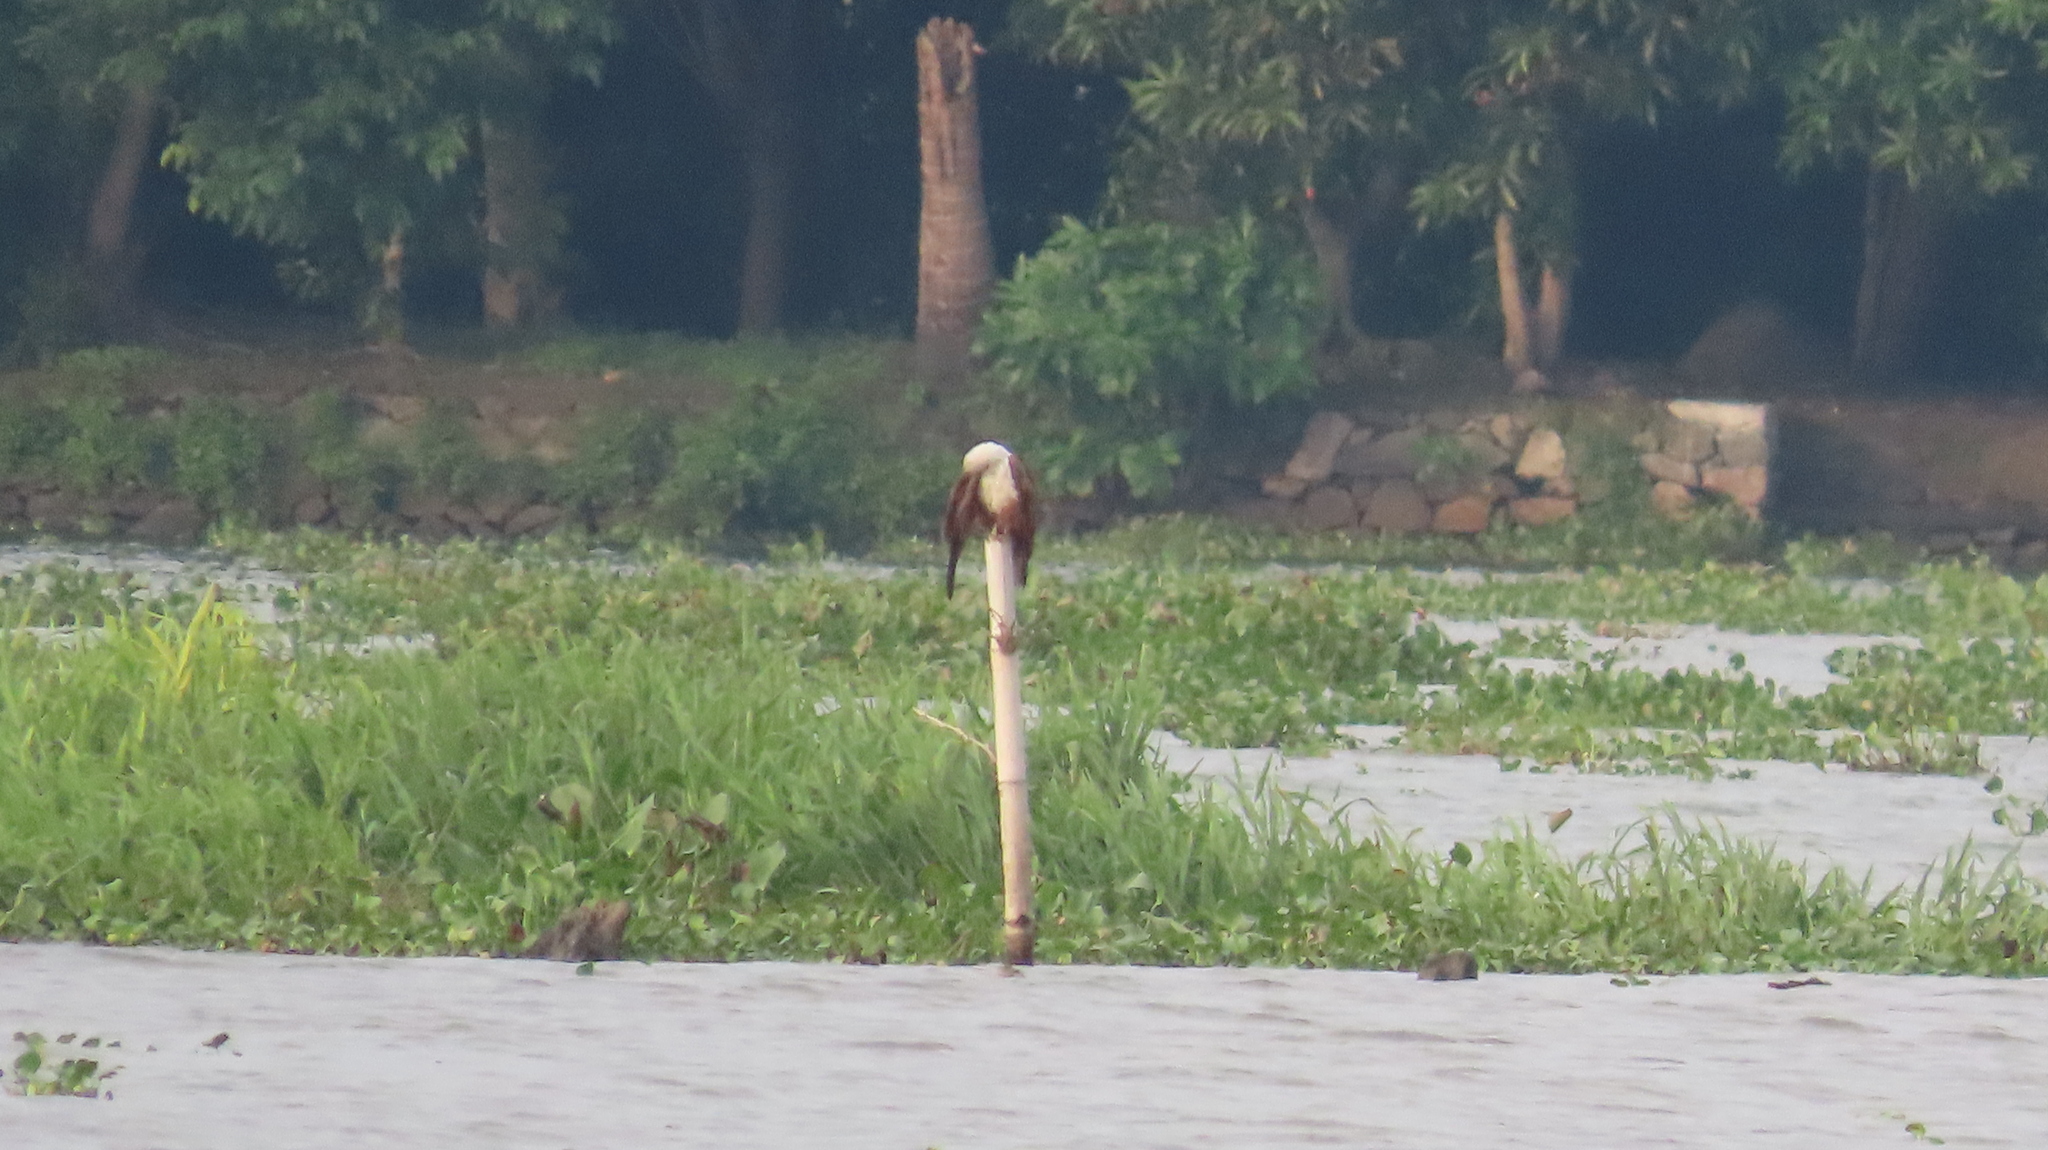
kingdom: Animalia
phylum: Chordata
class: Aves
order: Accipitriformes
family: Accipitridae
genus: Haliastur
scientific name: Haliastur indus
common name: Brahminy kite
